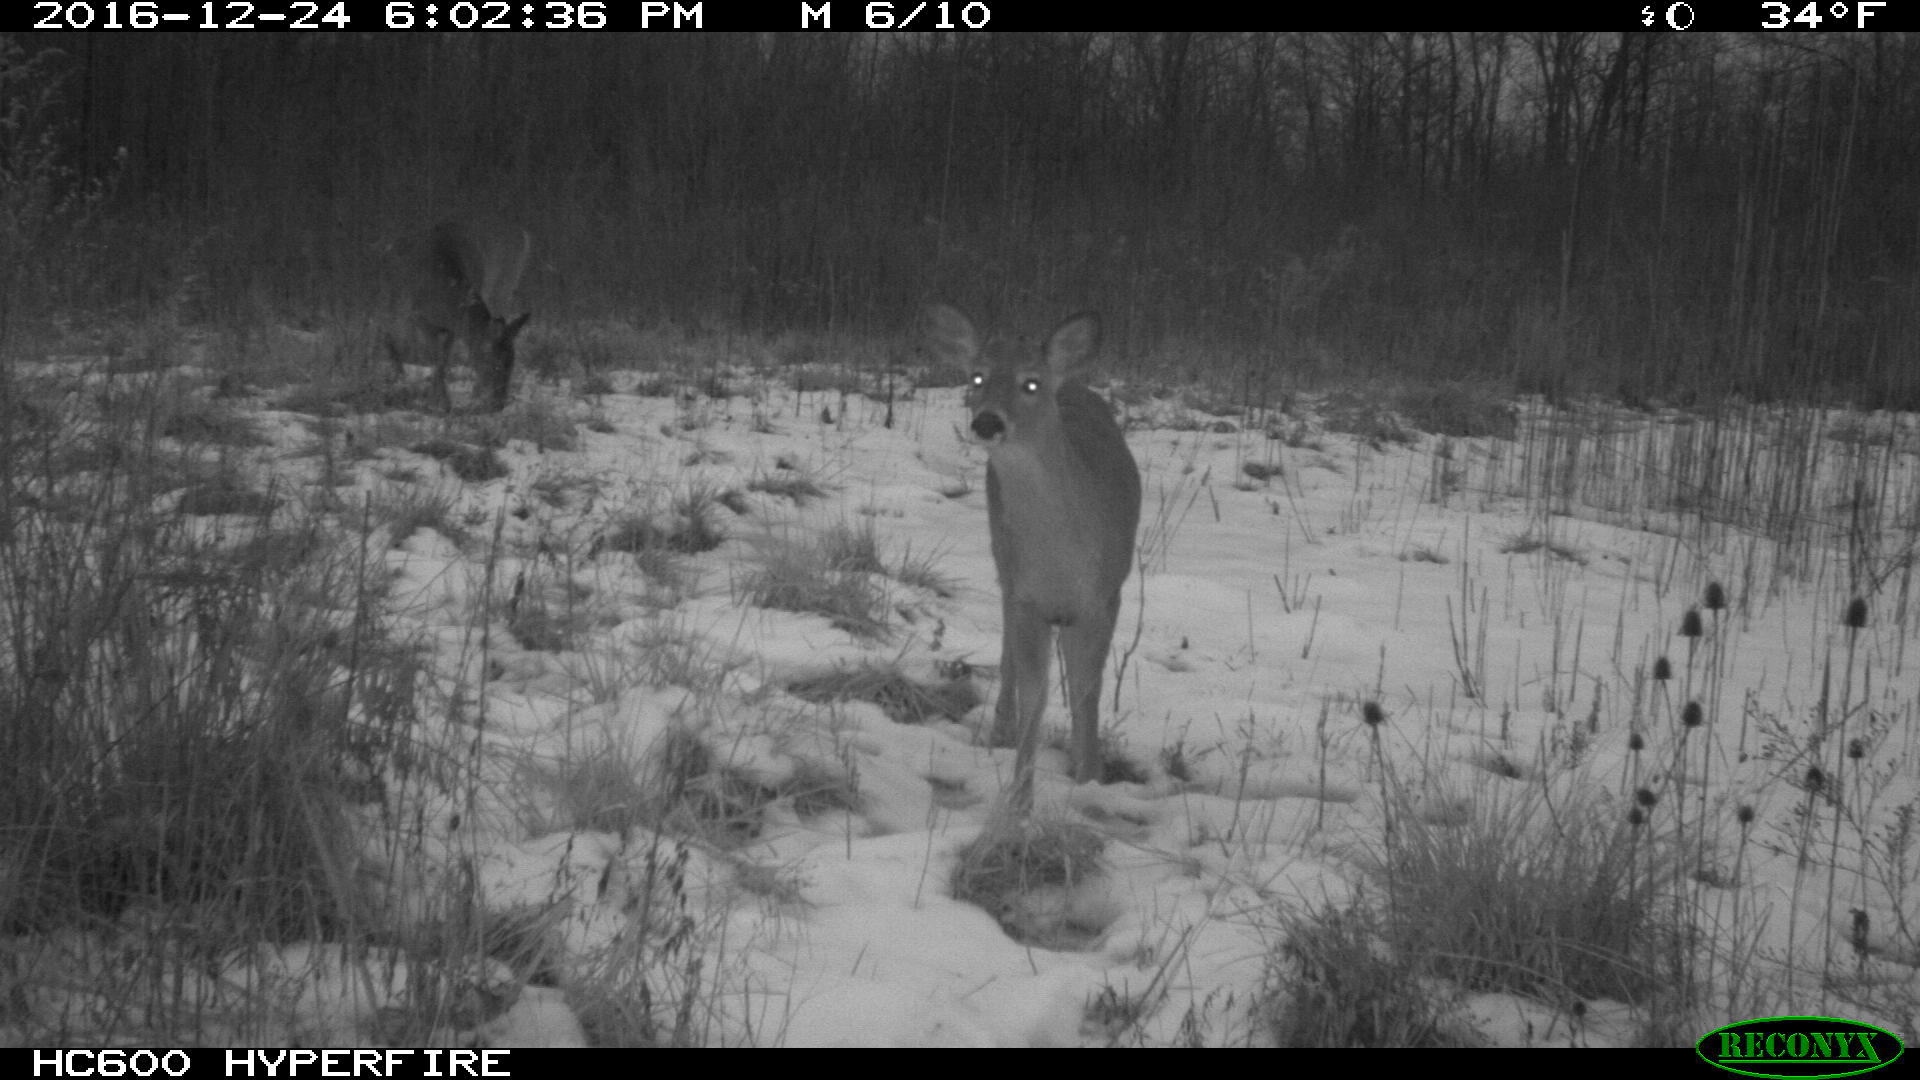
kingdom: Animalia
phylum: Chordata
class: Mammalia
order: Artiodactyla
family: Cervidae
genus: Odocoileus
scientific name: Odocoileus virginianus
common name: White-tailed deer
